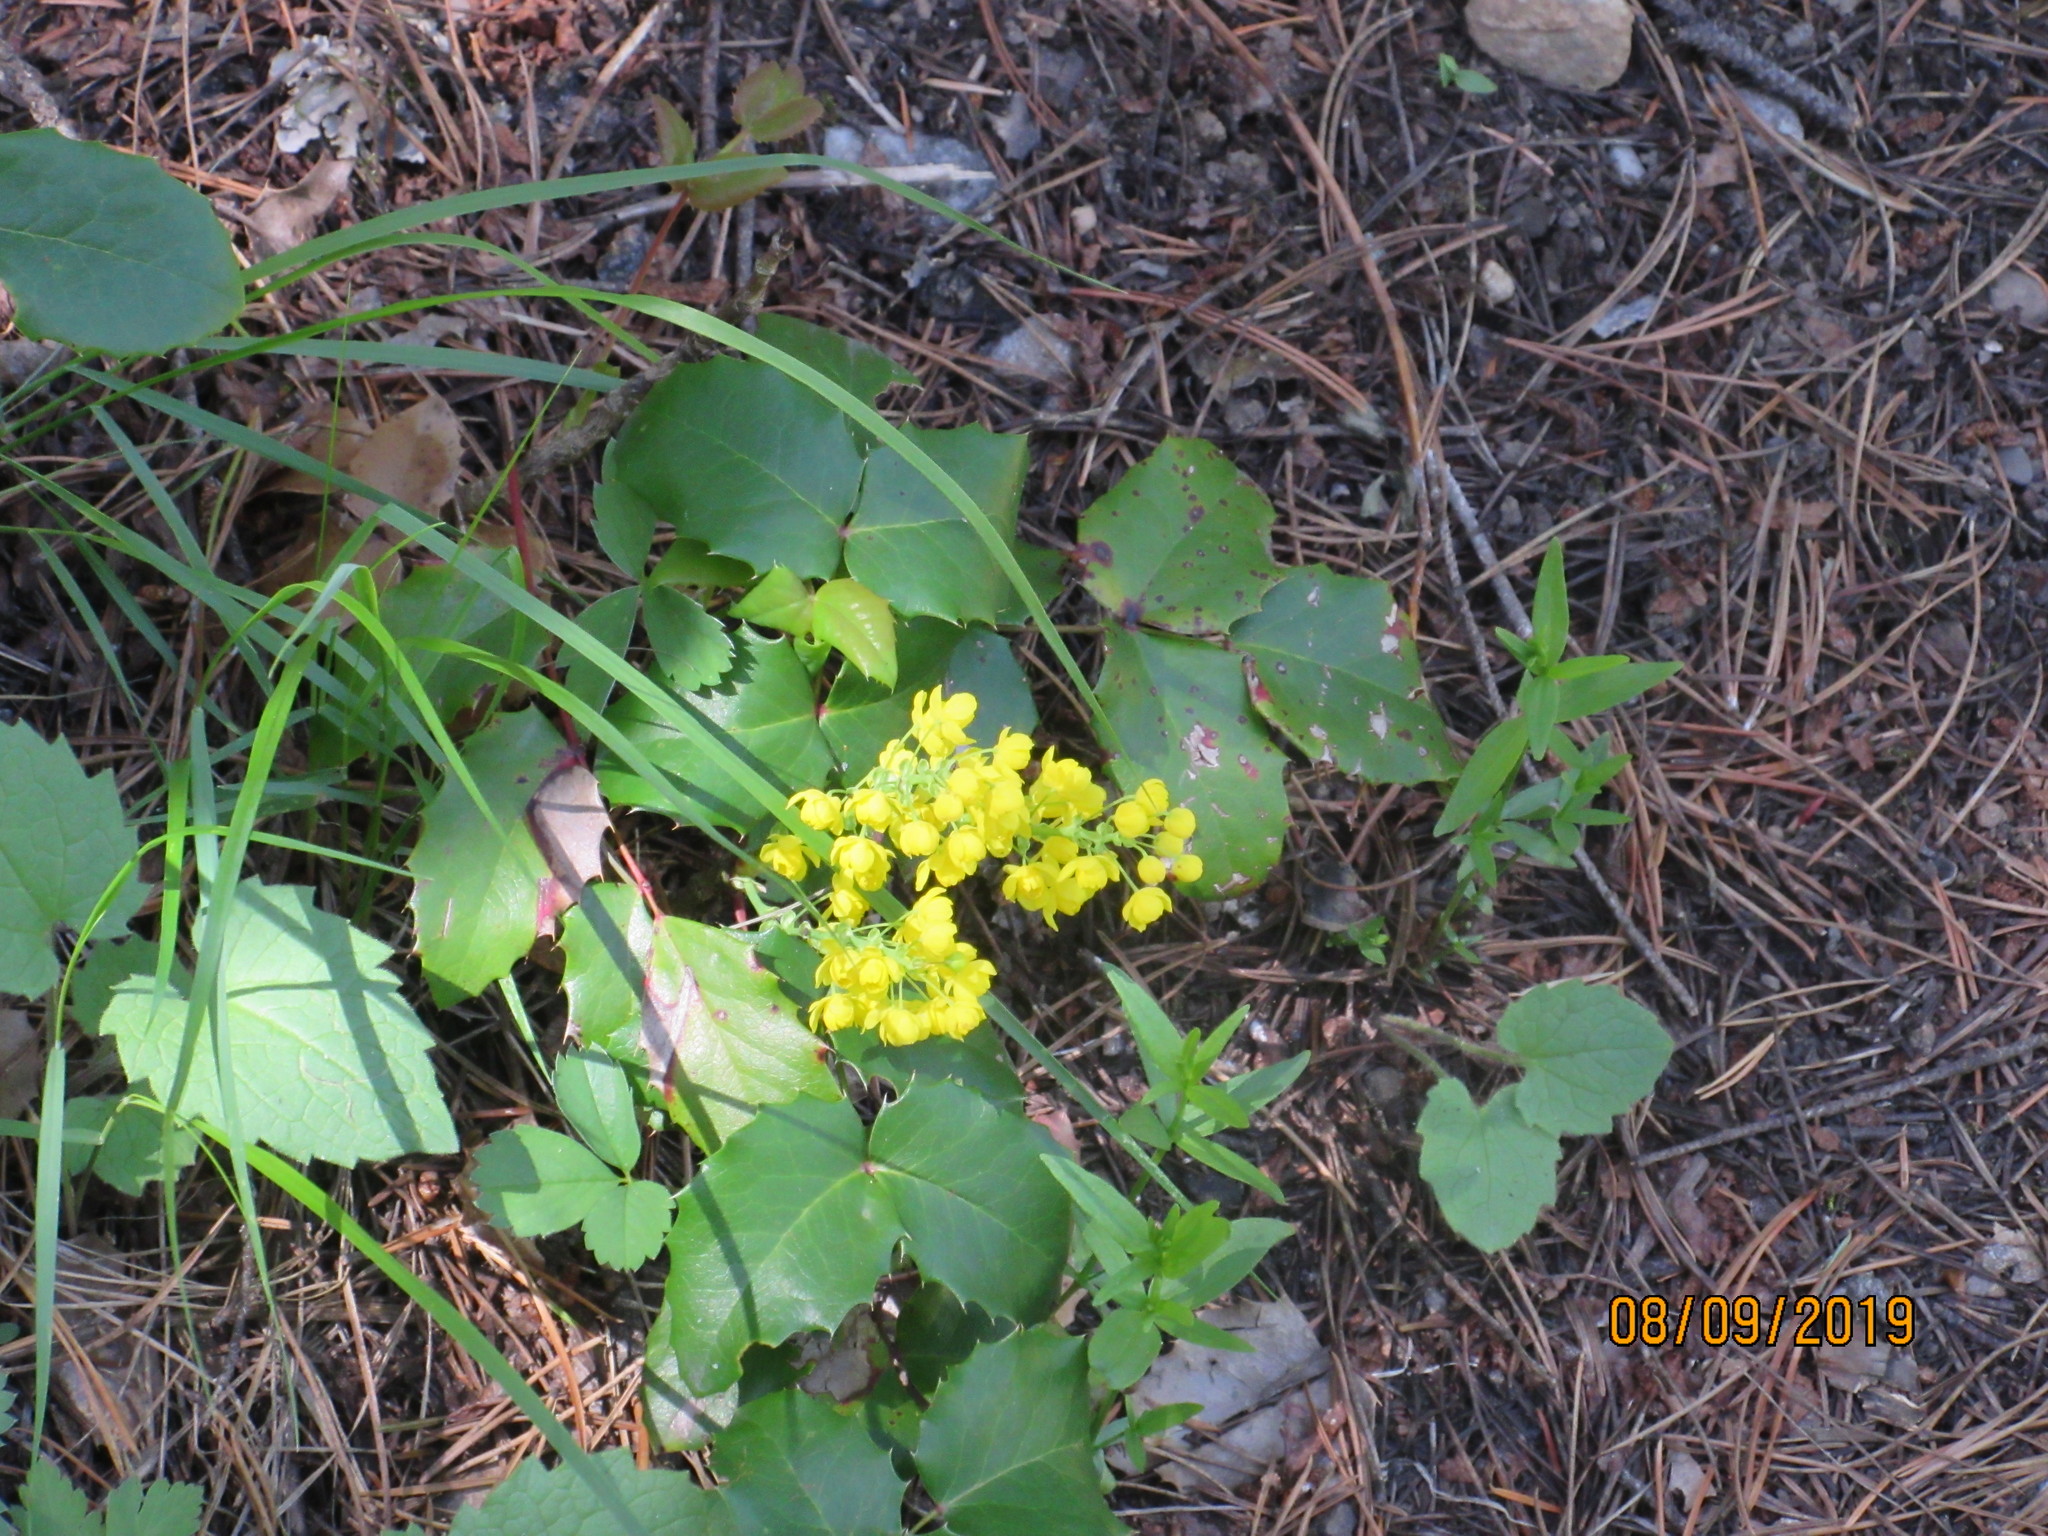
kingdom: Plantae
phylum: Tracheophyta
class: Magnoliopsida
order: Ranunculales
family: Berberidaceae
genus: Mahonia
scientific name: Mahonia repens
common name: Creeping oregon-grape
